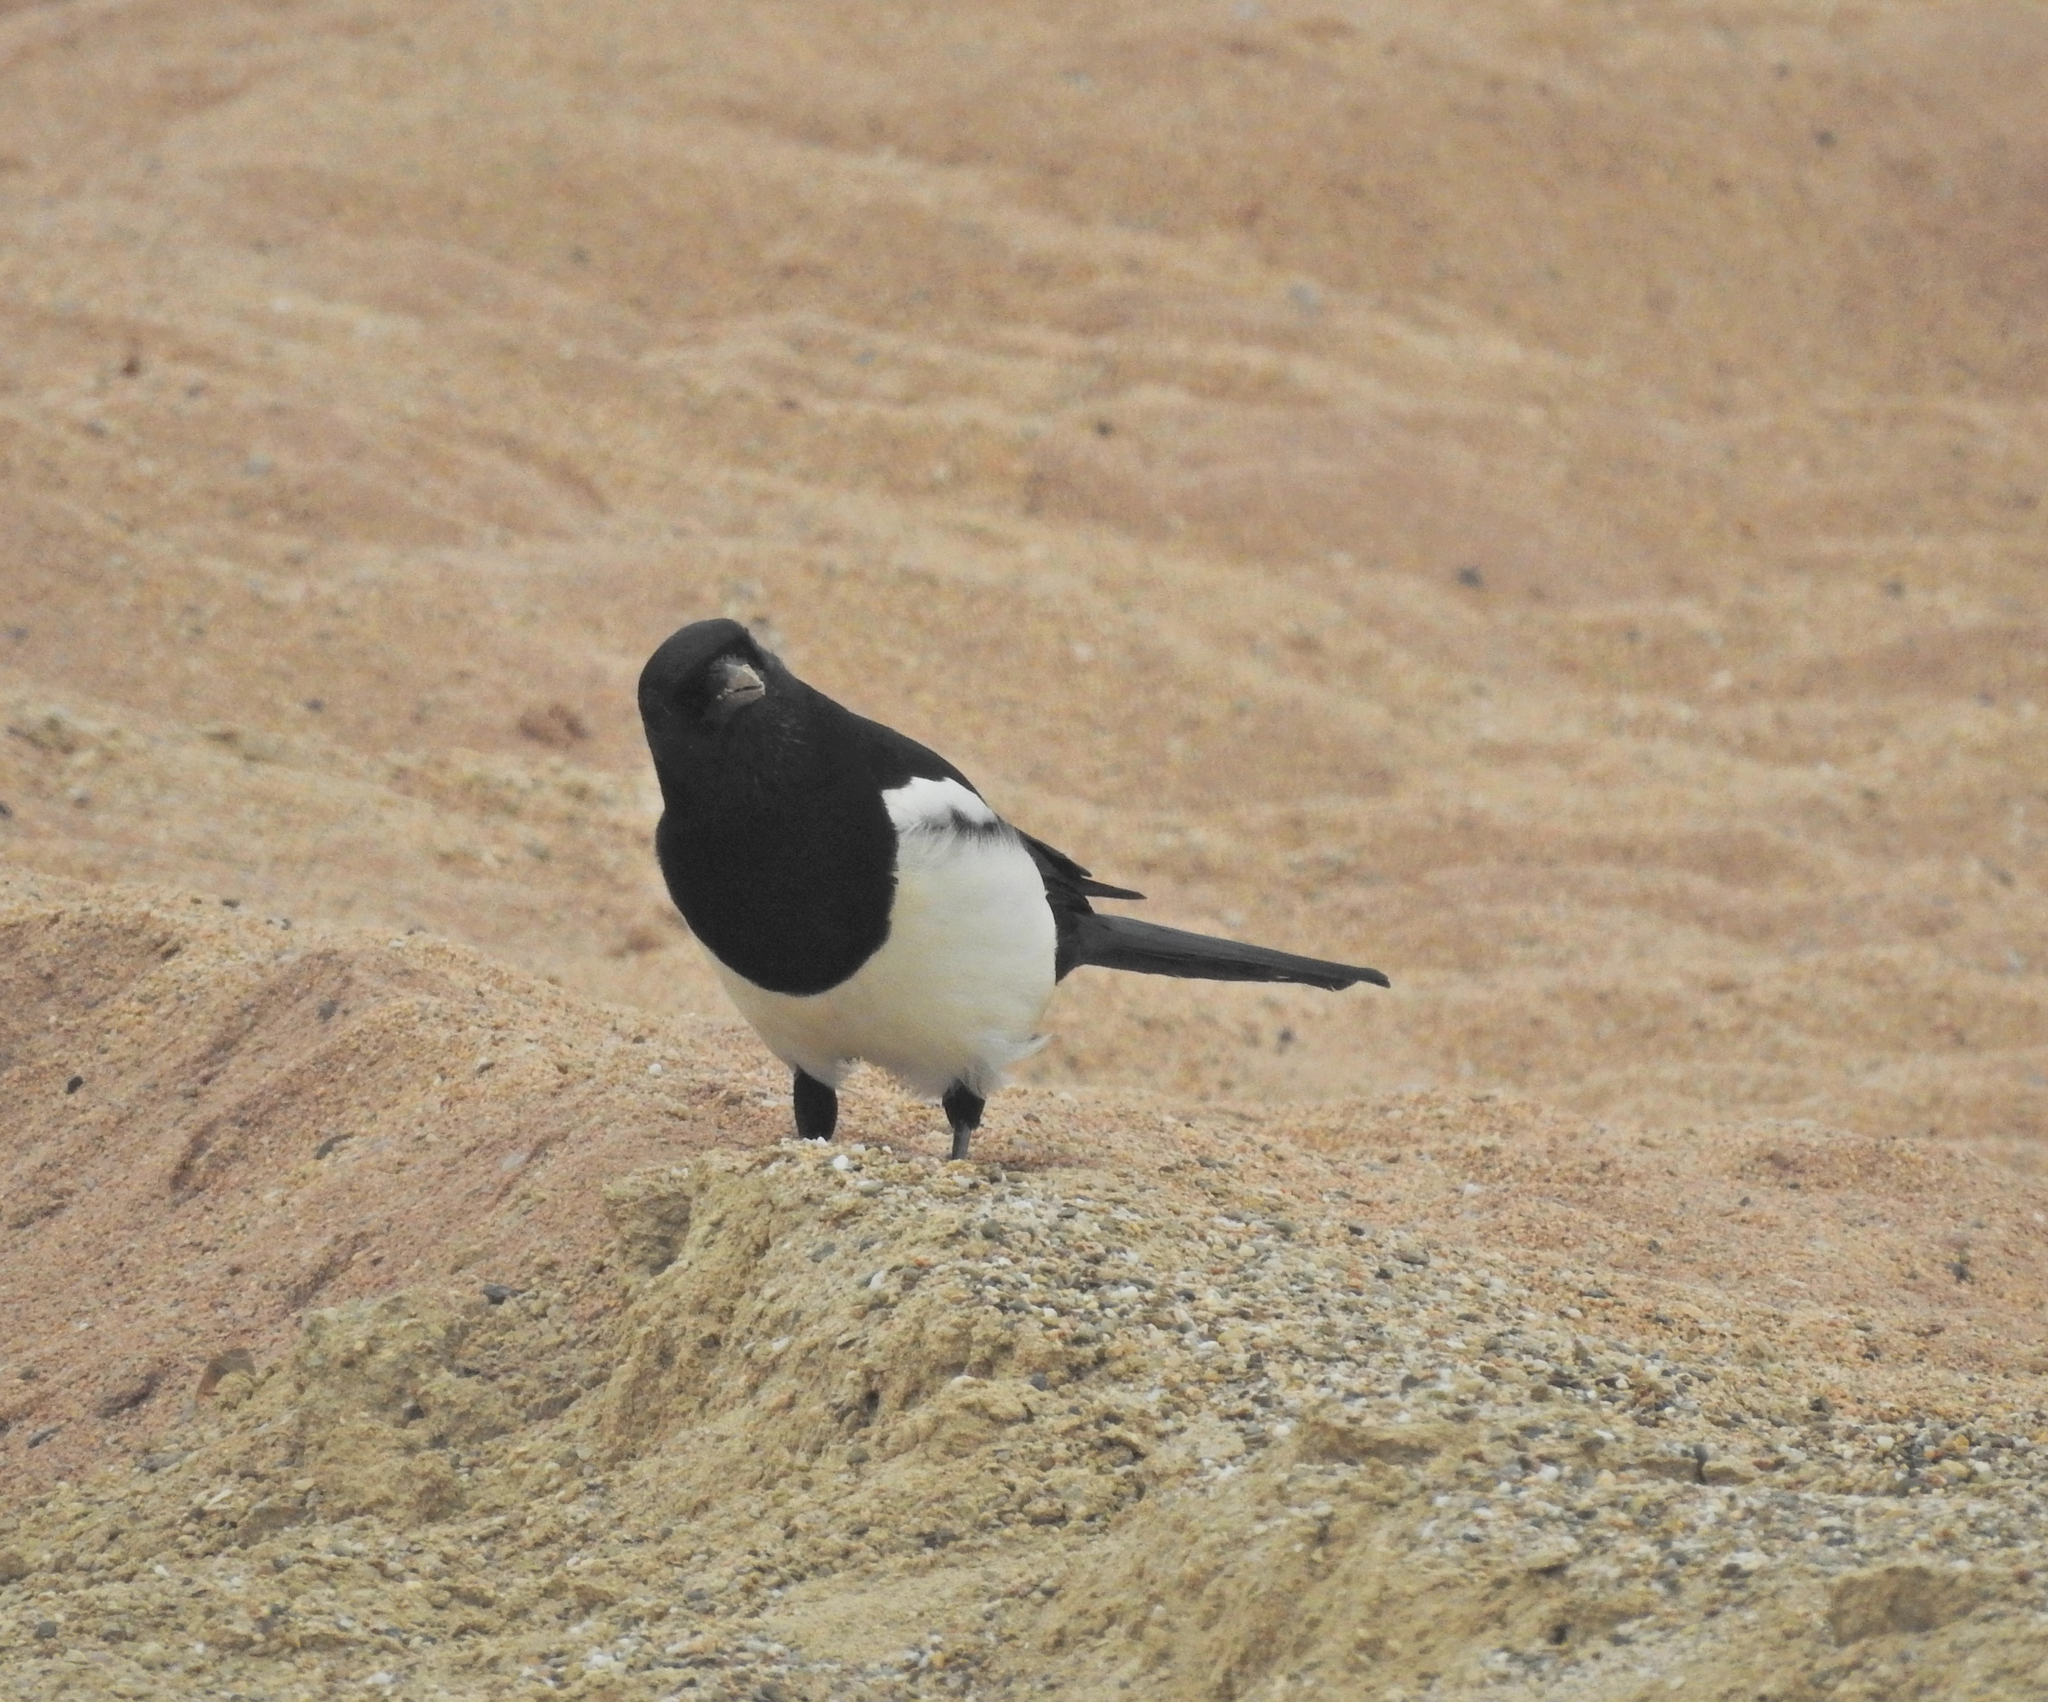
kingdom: Animalia
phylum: Chordata
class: Aves
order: Passeriformes
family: Corvidae
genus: Pica
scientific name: Pica pica
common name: Eurasian magpie
